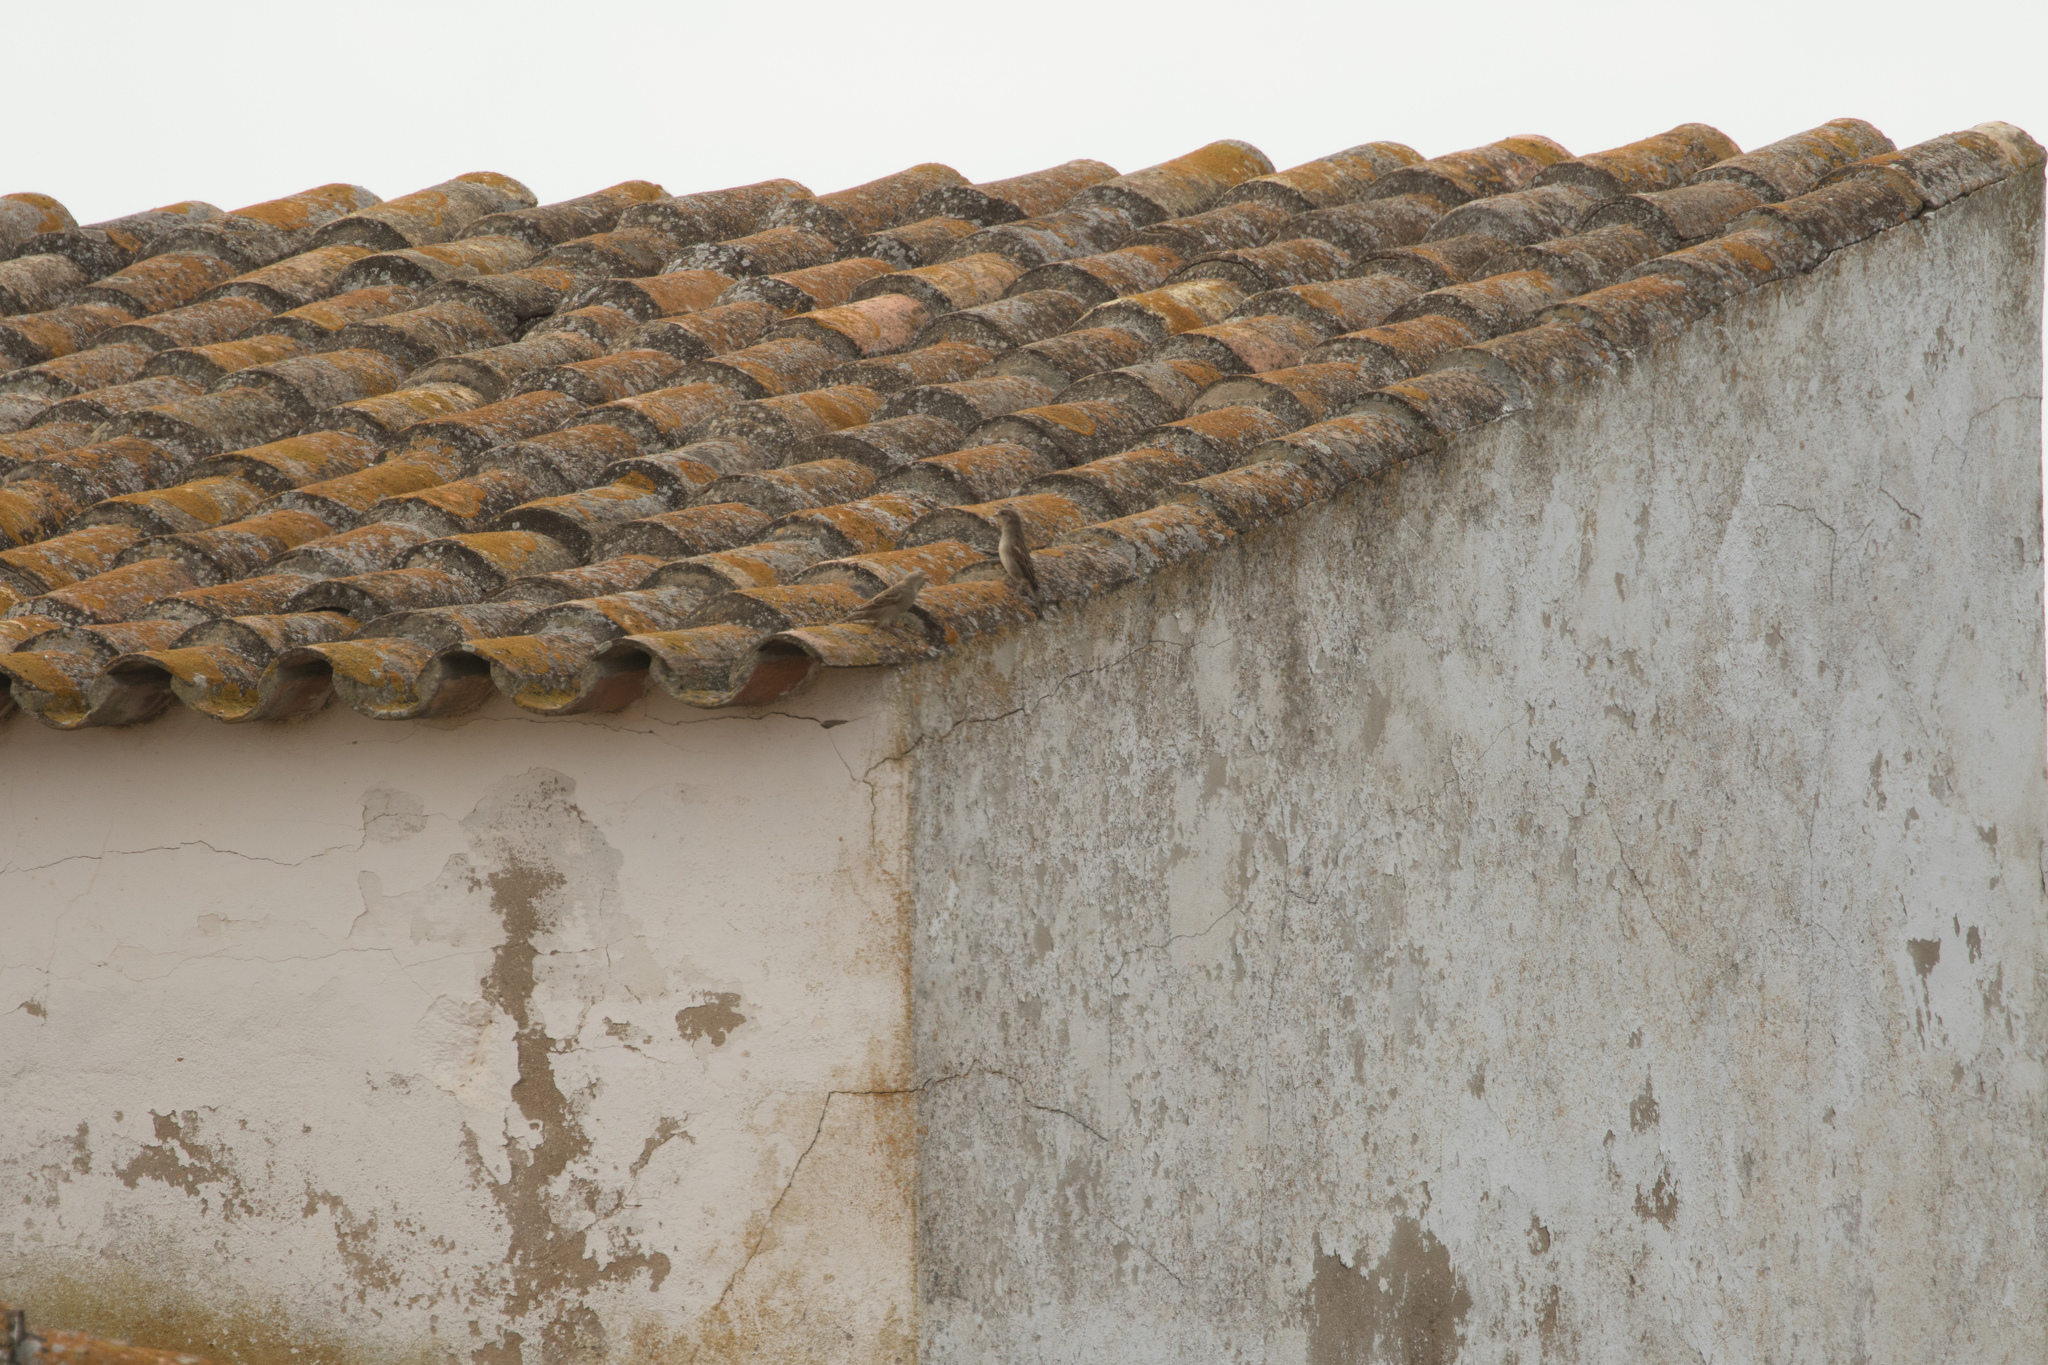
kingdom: Animalia
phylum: Chordata
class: Aves
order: Passeriformes
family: Passeridae
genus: Passer
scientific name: Passer domesticus
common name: House sparrow
